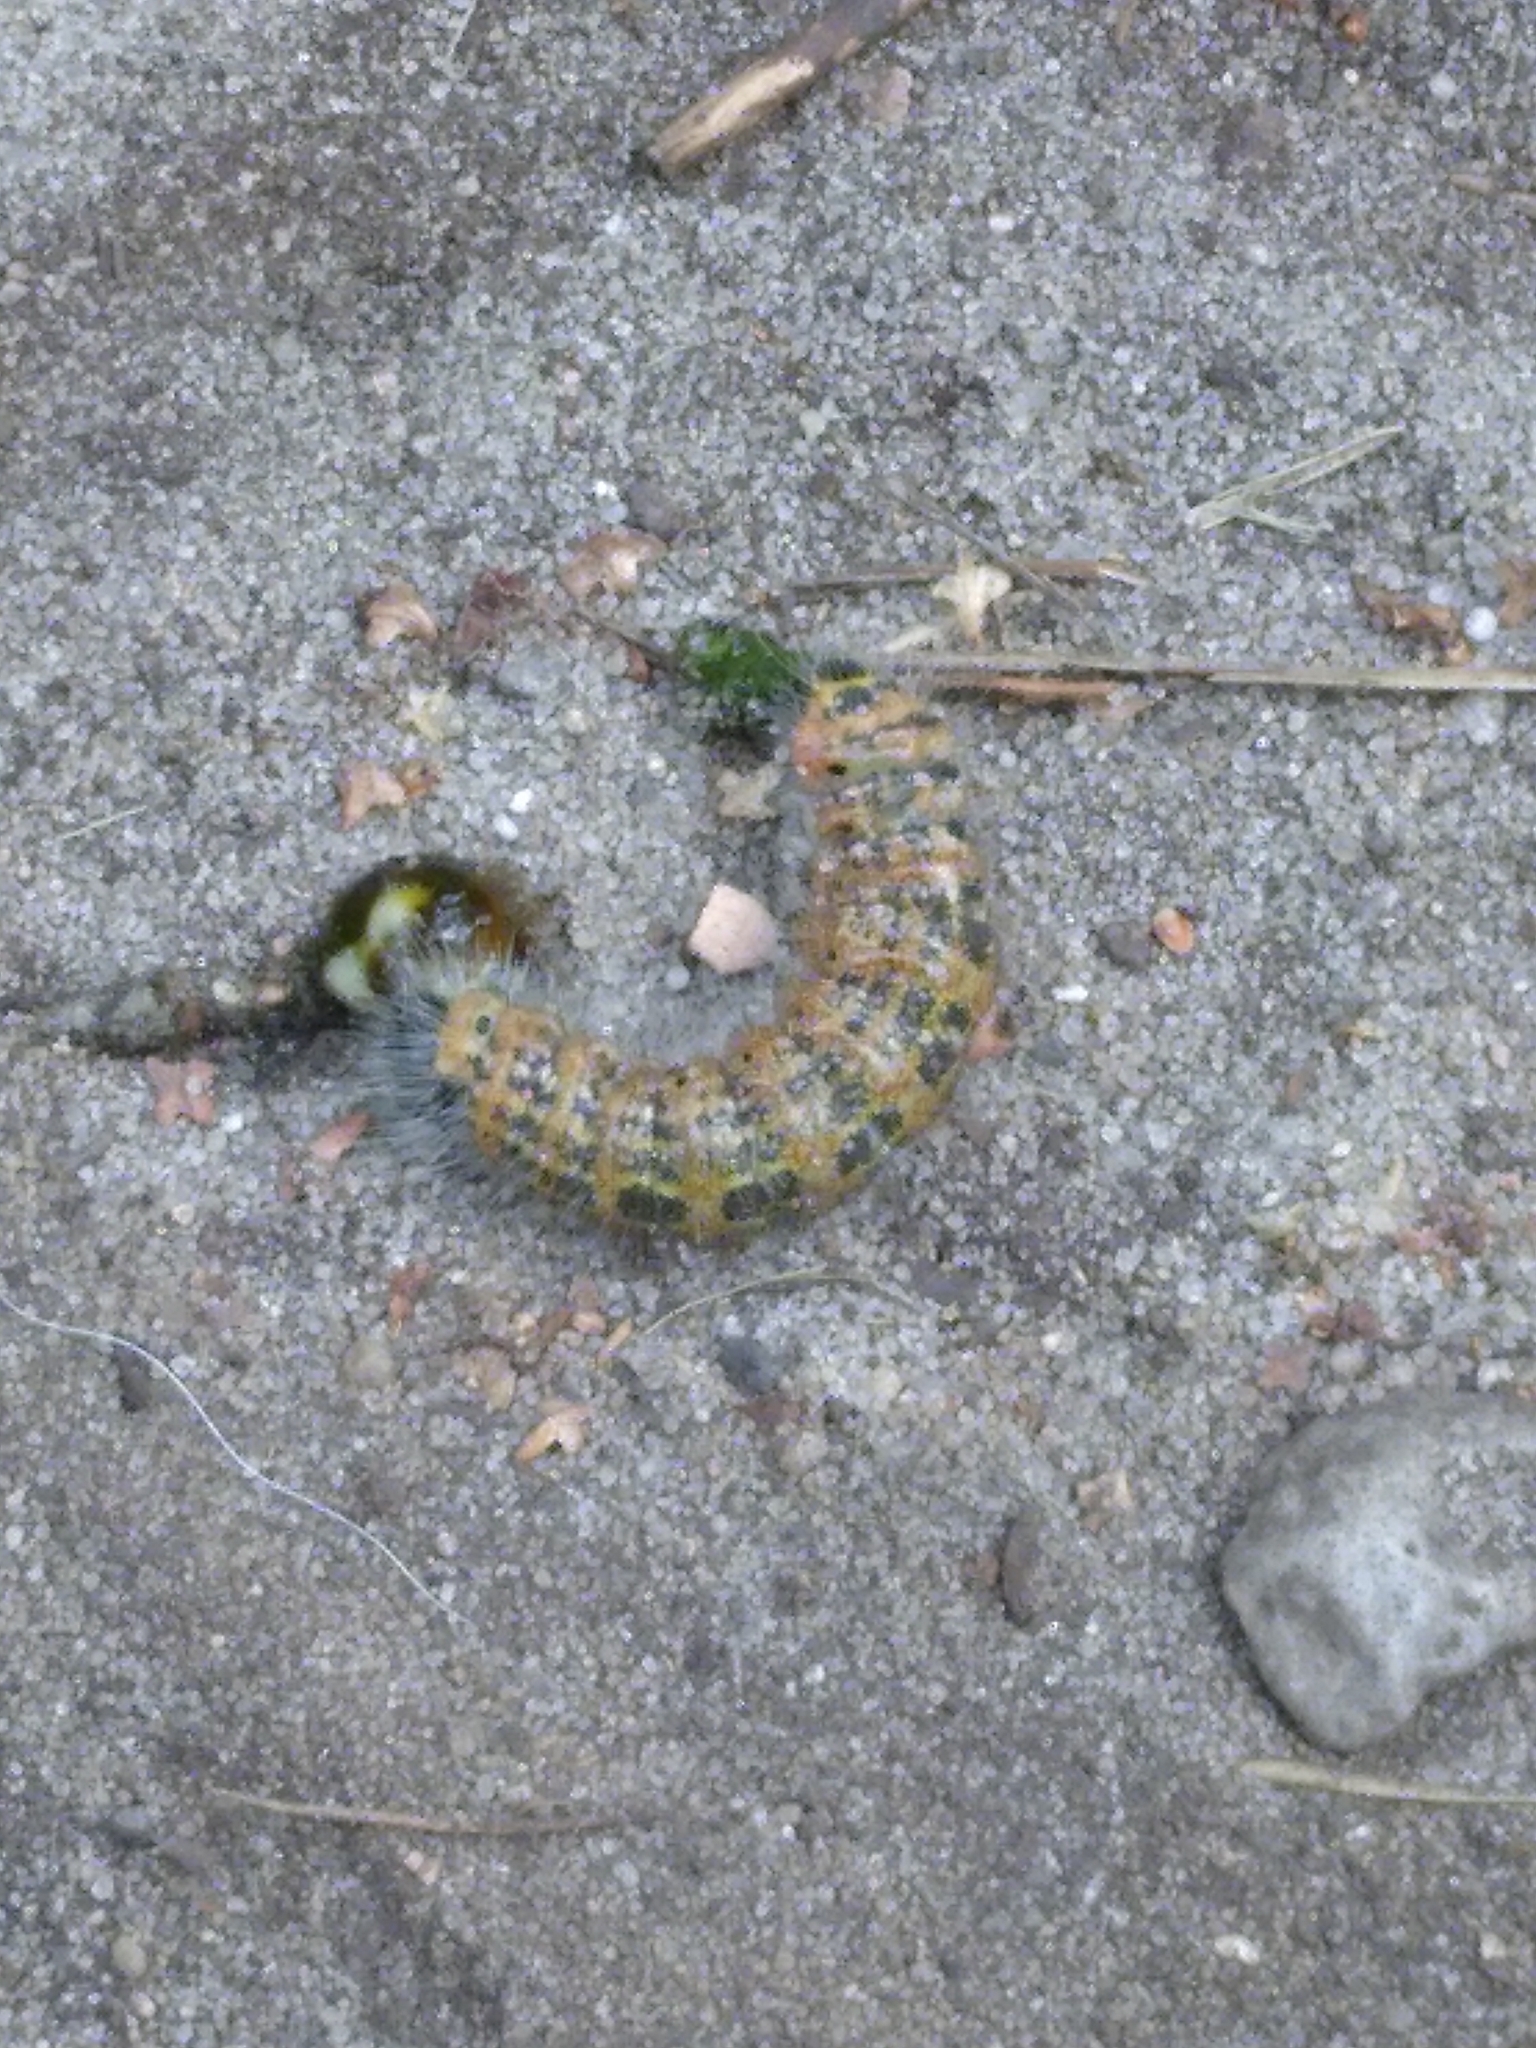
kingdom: Animalia
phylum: Arthropoda
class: Insecta
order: Lepidoptera
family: Notodontidae
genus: Phalera
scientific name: Phalera bucephala
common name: Buff-tip
